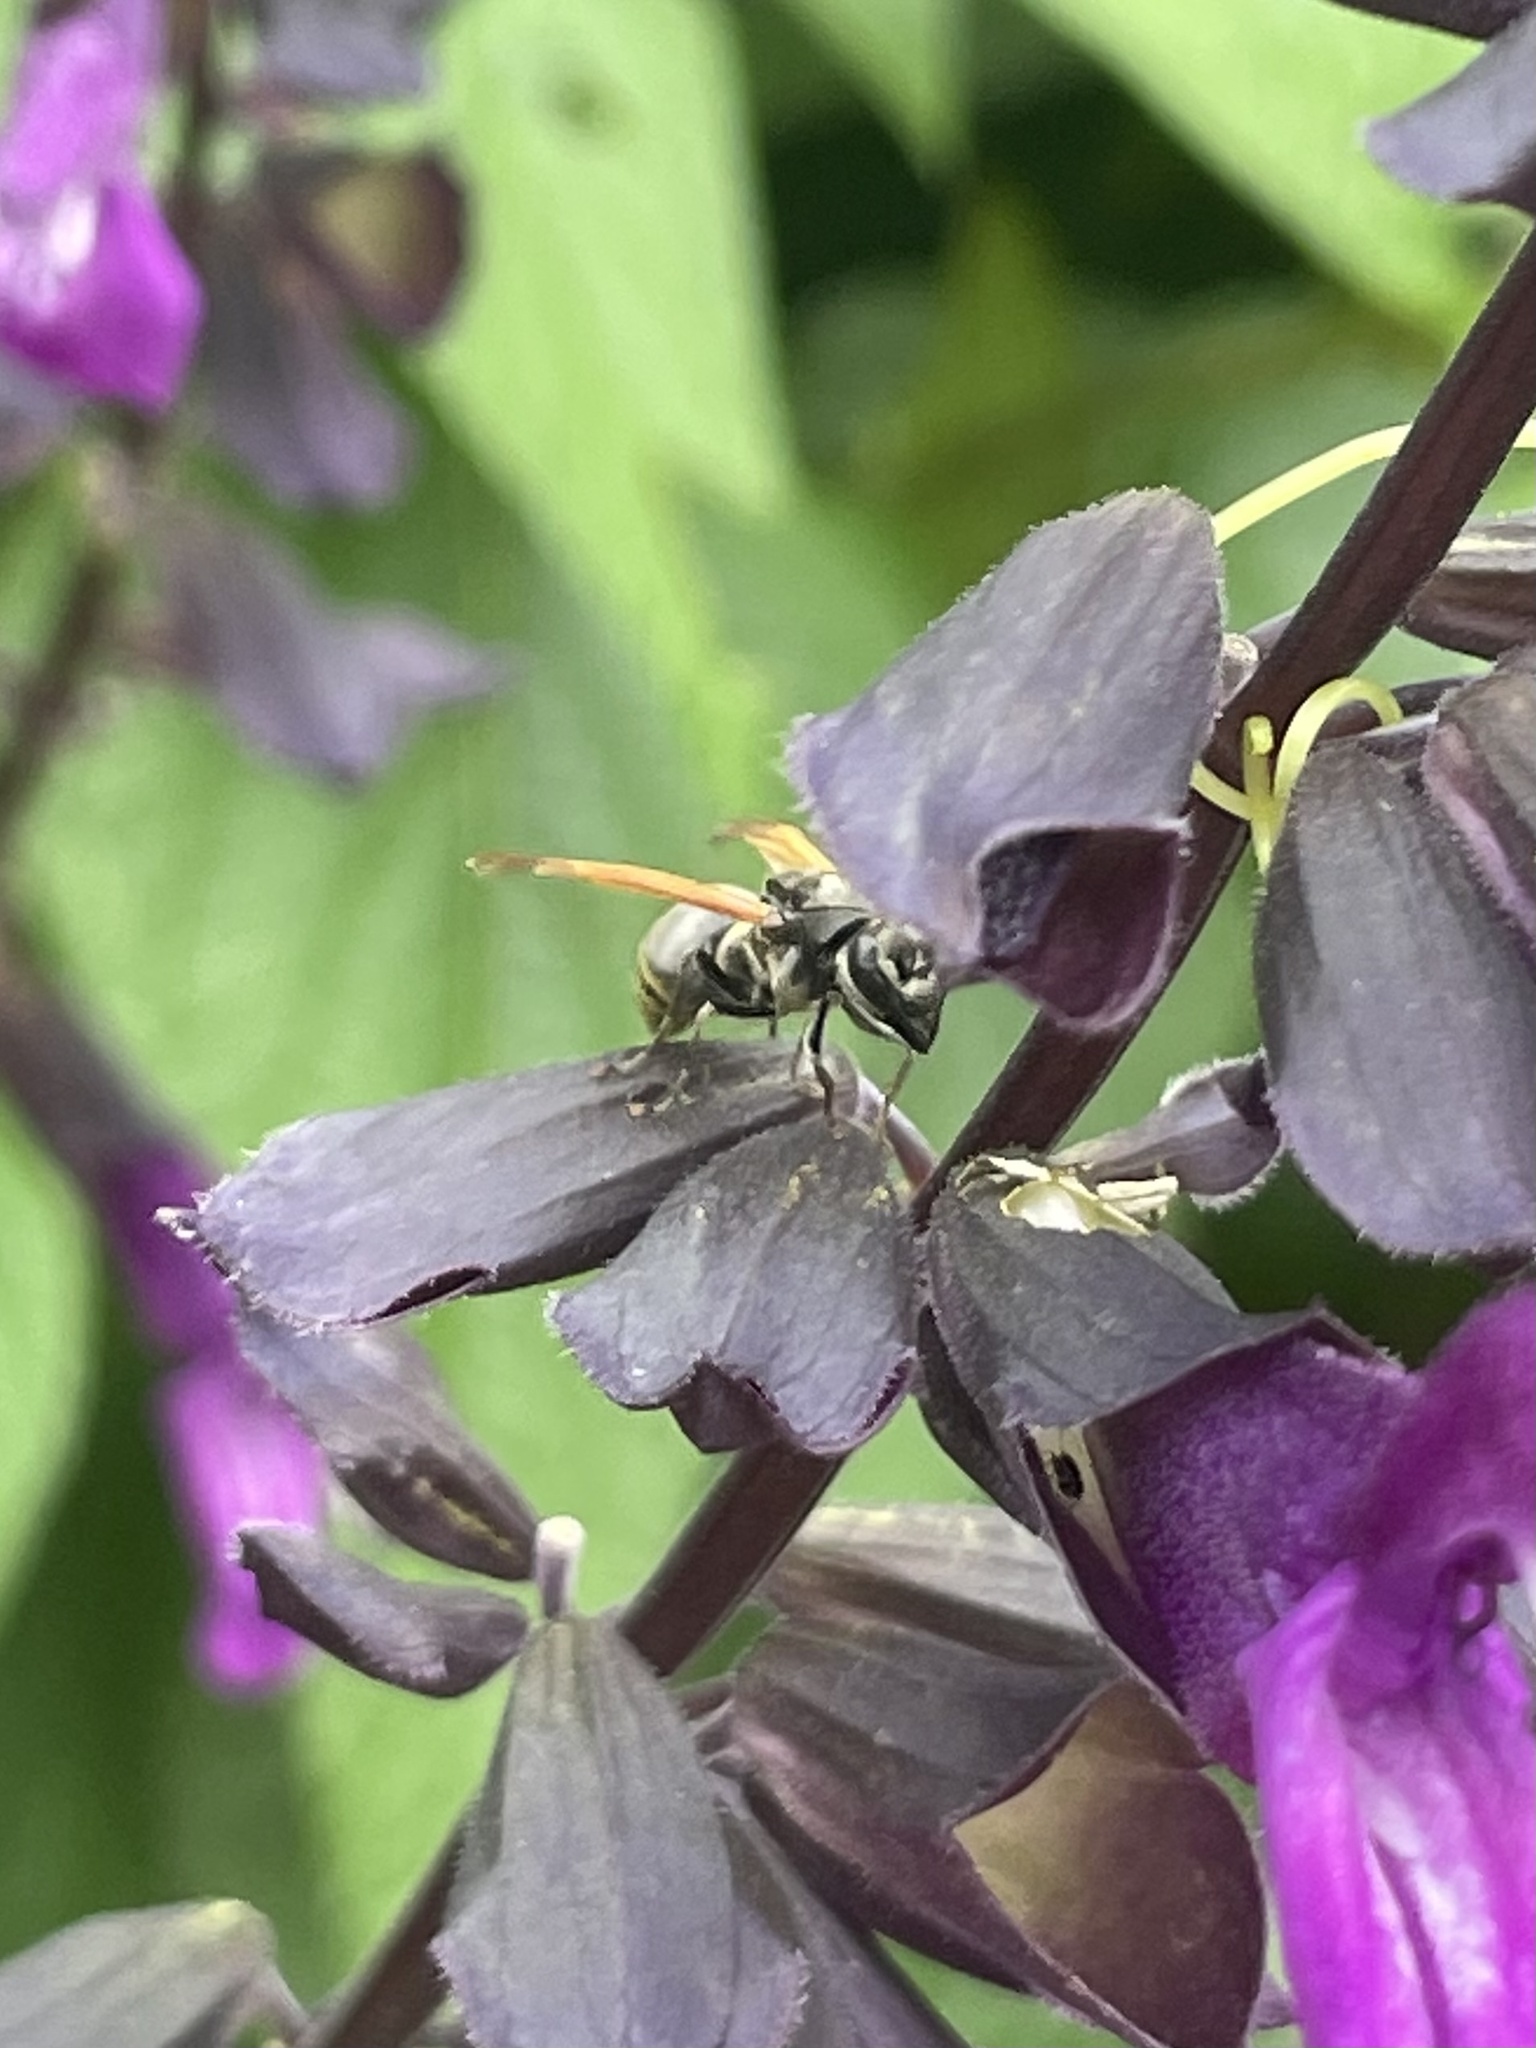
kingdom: Animalia
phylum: Arthropoda
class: Insecta
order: Hymenoptera
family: Vespidae
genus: Brachygastra
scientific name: Brachygastra mellifica
